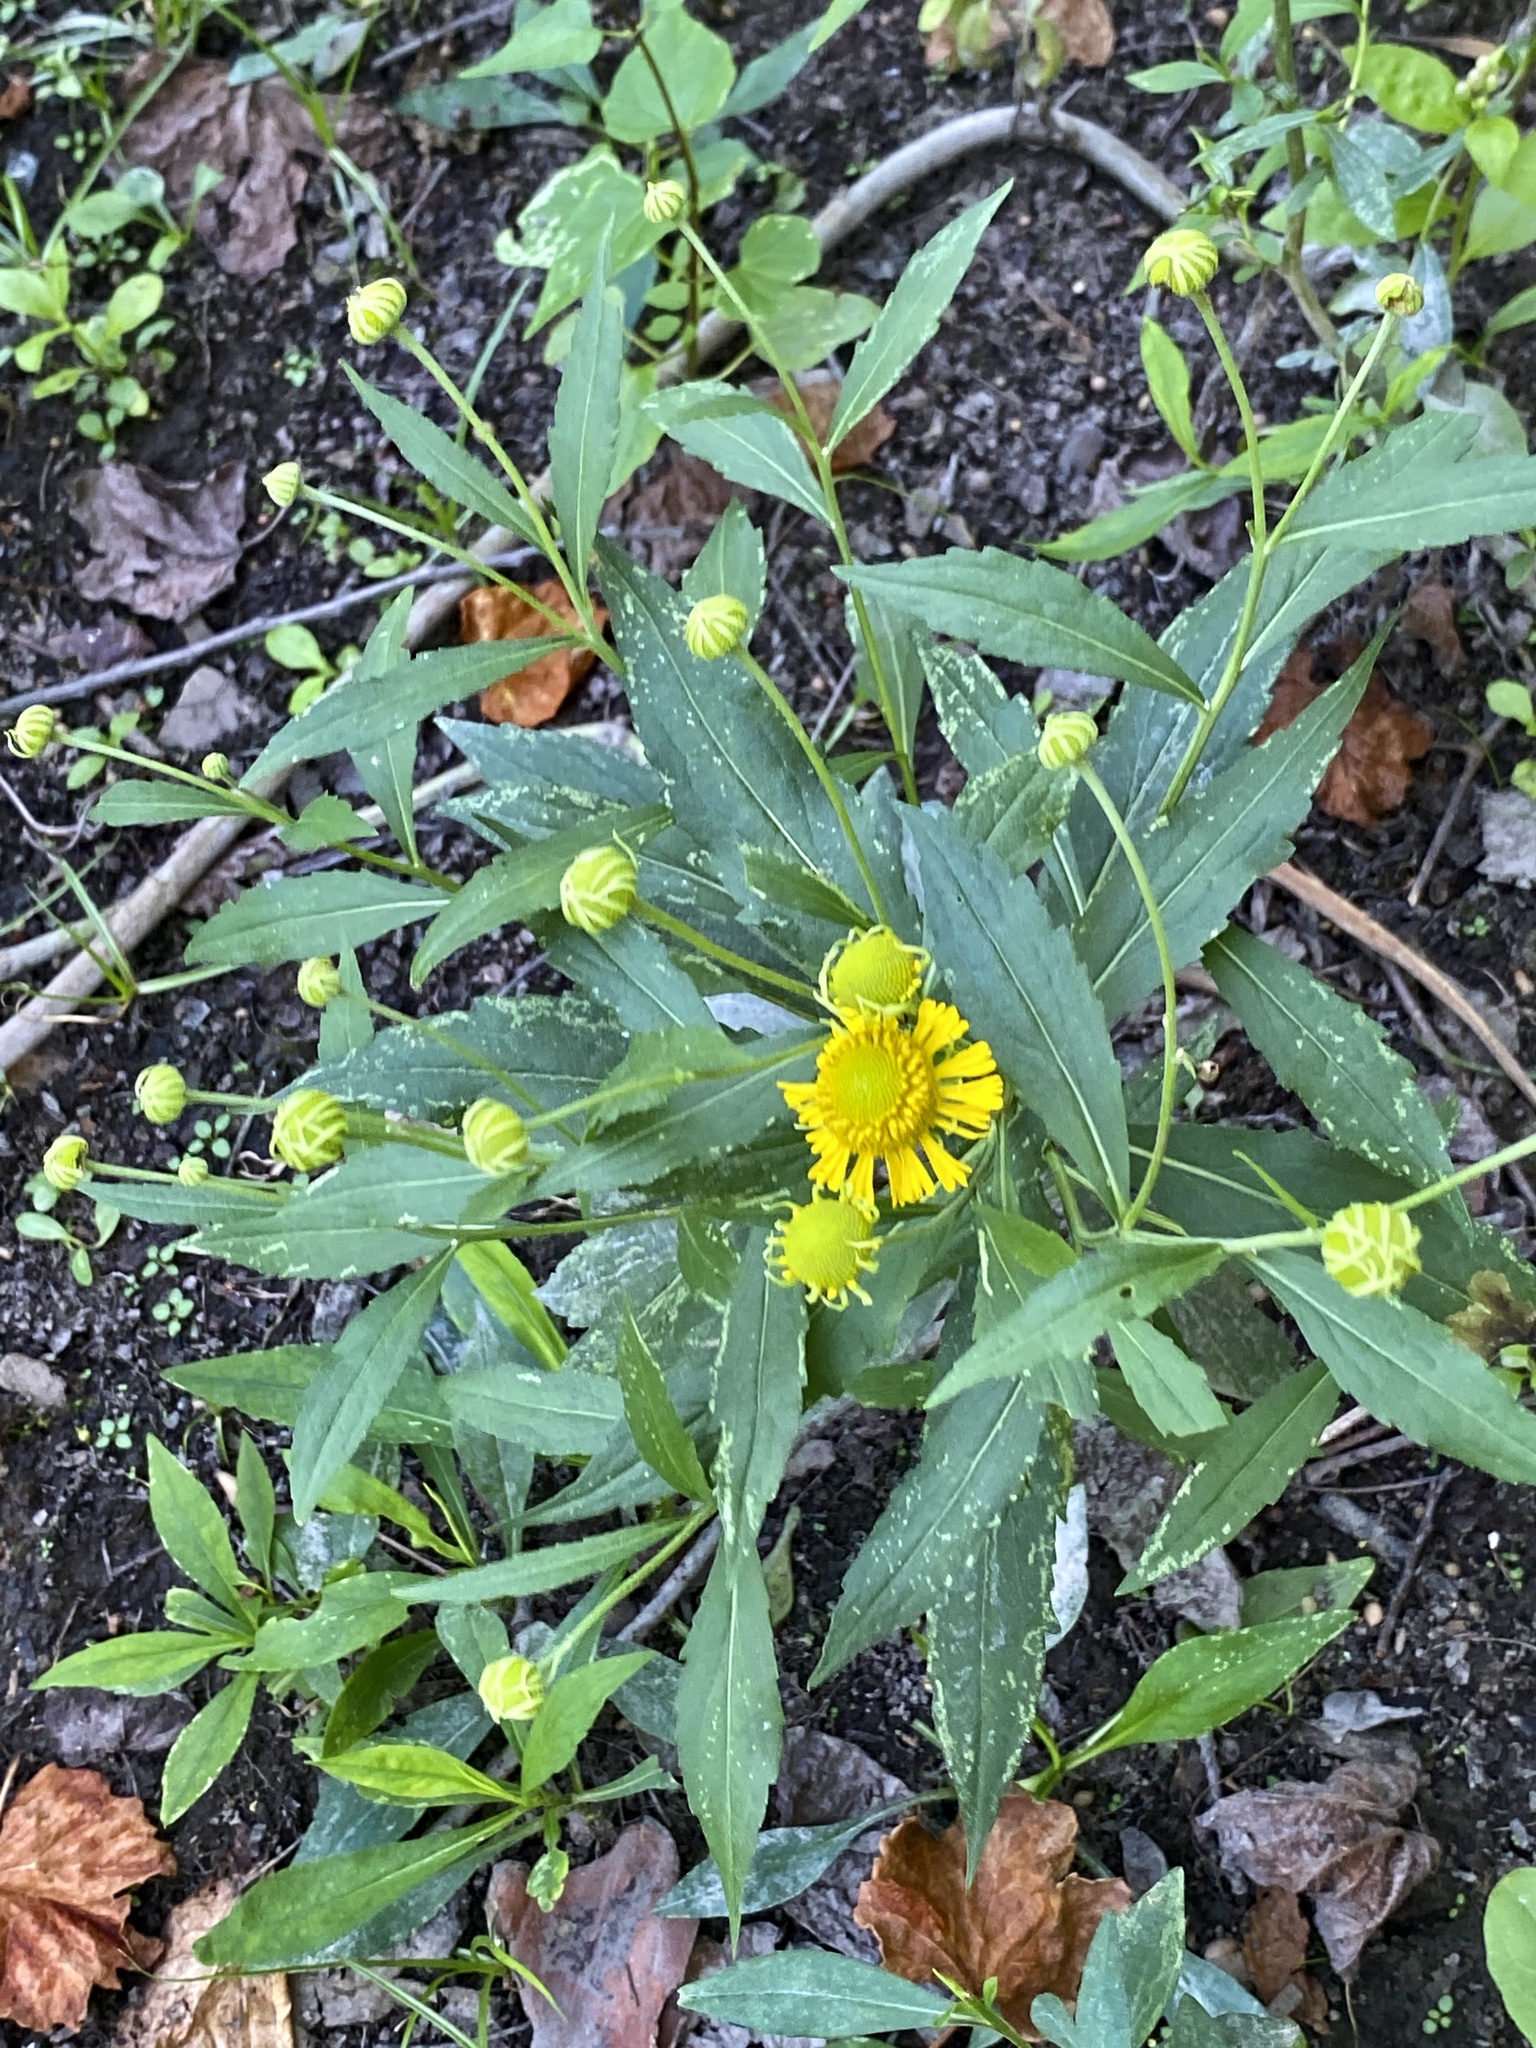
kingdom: Plantae
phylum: Tracheophyta
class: Magnoliopsida
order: Asterales
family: Asteraceae
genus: Helenium
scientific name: Helenium autumnale
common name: Sneezeweed
